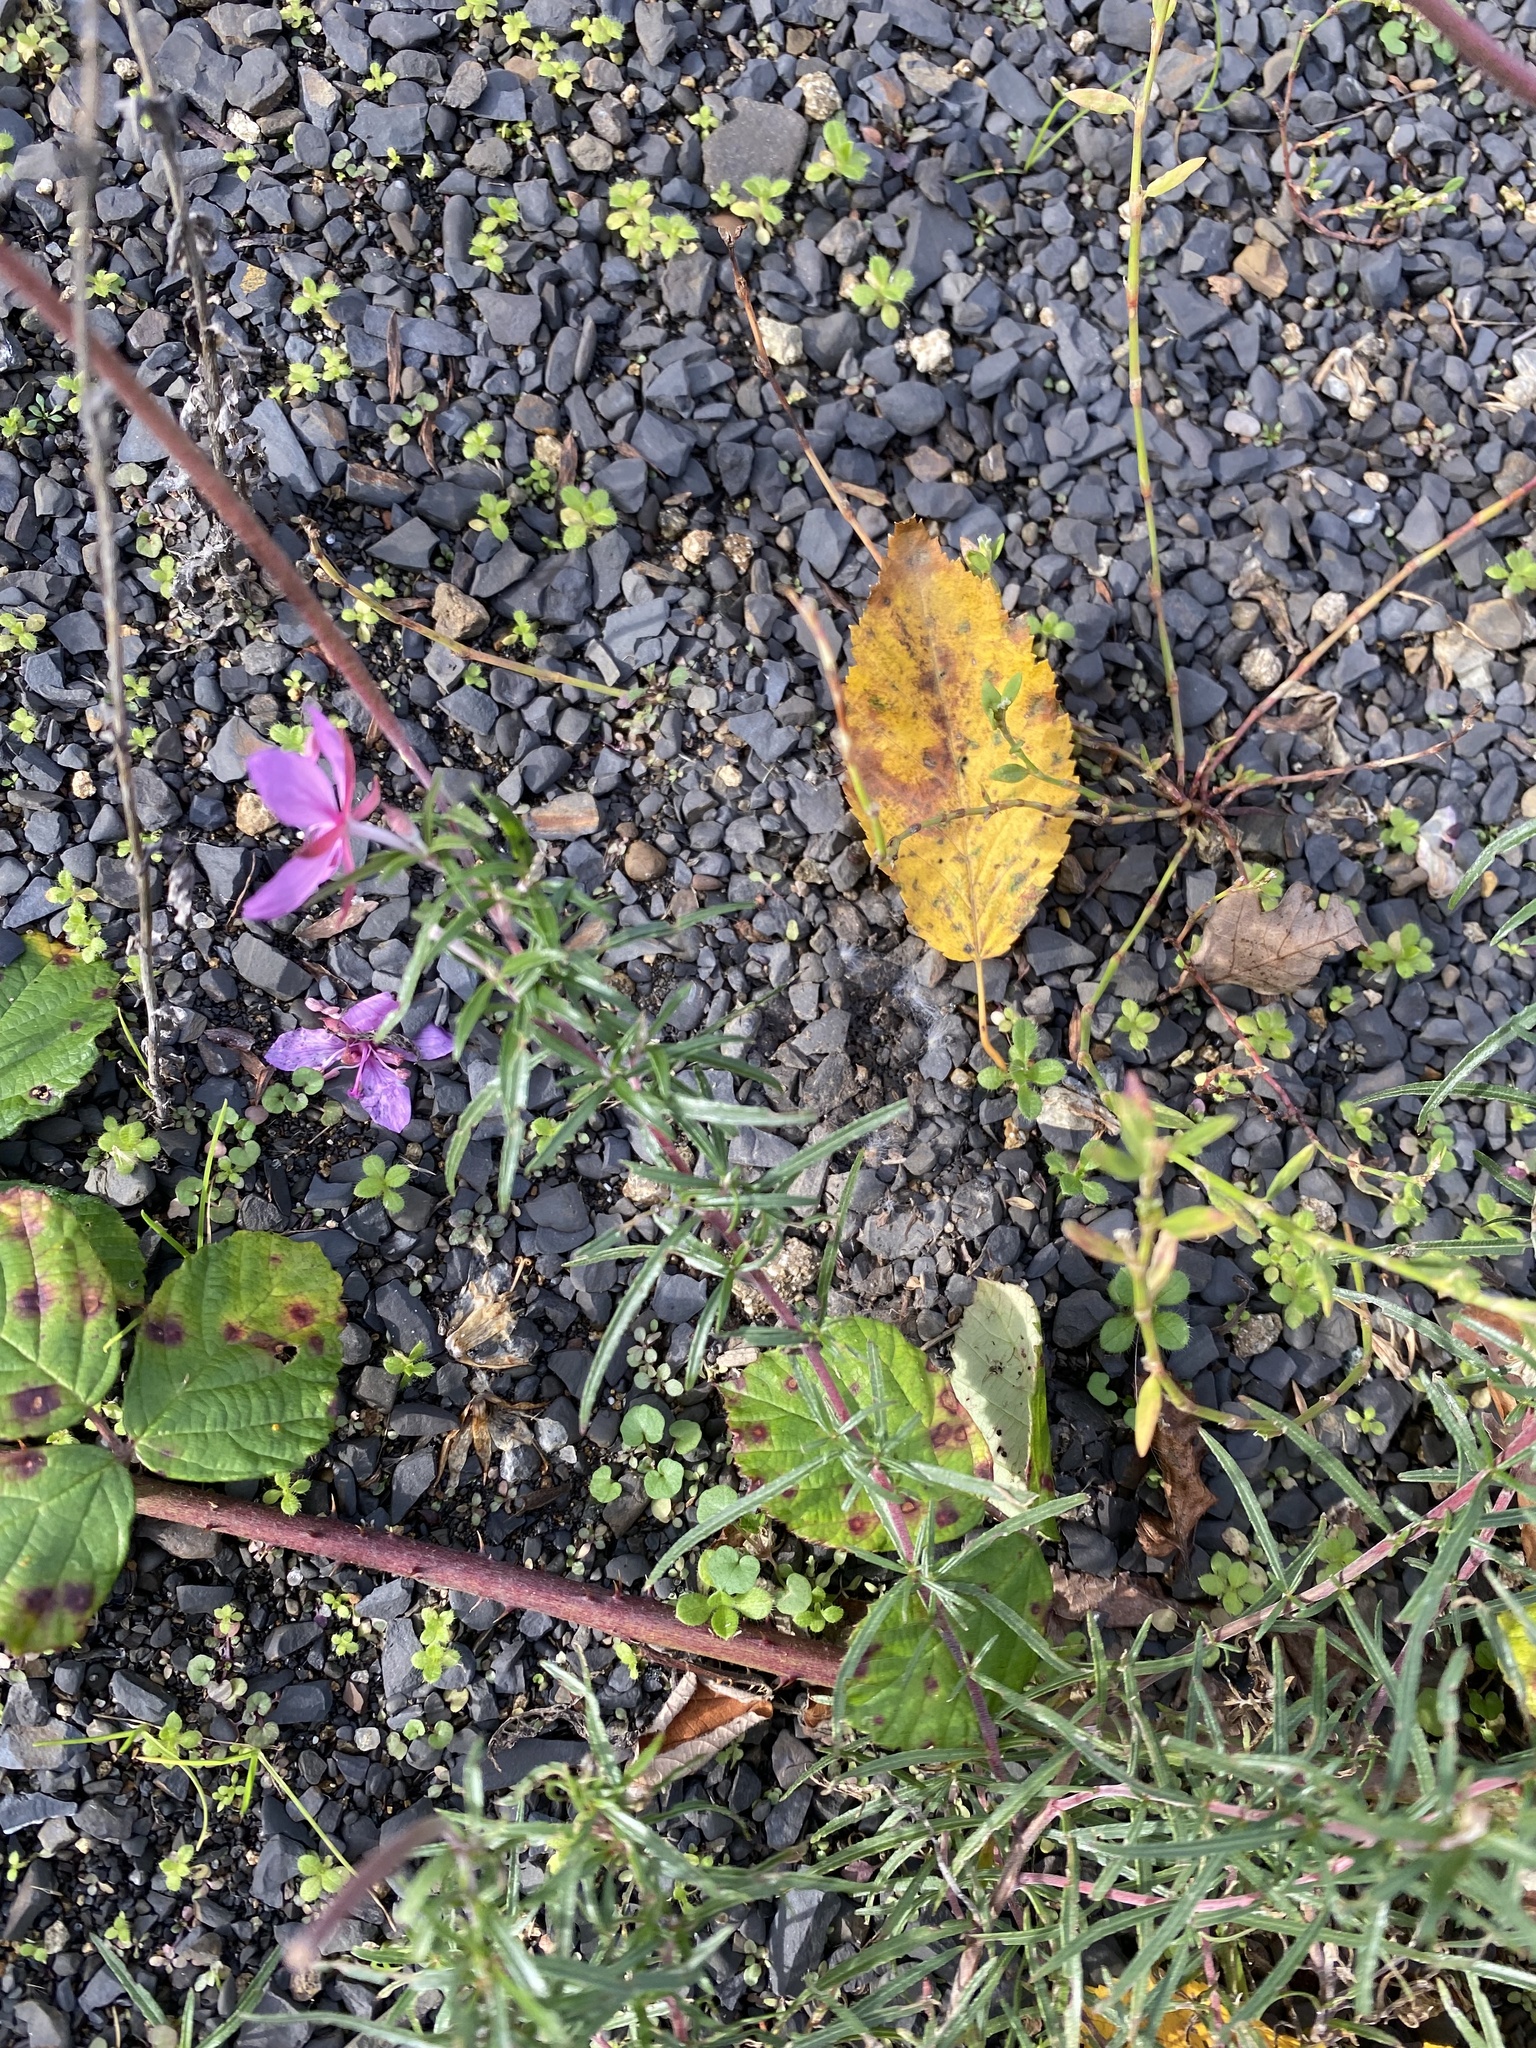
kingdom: Plantae
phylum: Tracheophyta
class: Magnoliopsida
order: Myrtales
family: Onagraceae
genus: Chamaenerion
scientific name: Chamaenerion colchicum
